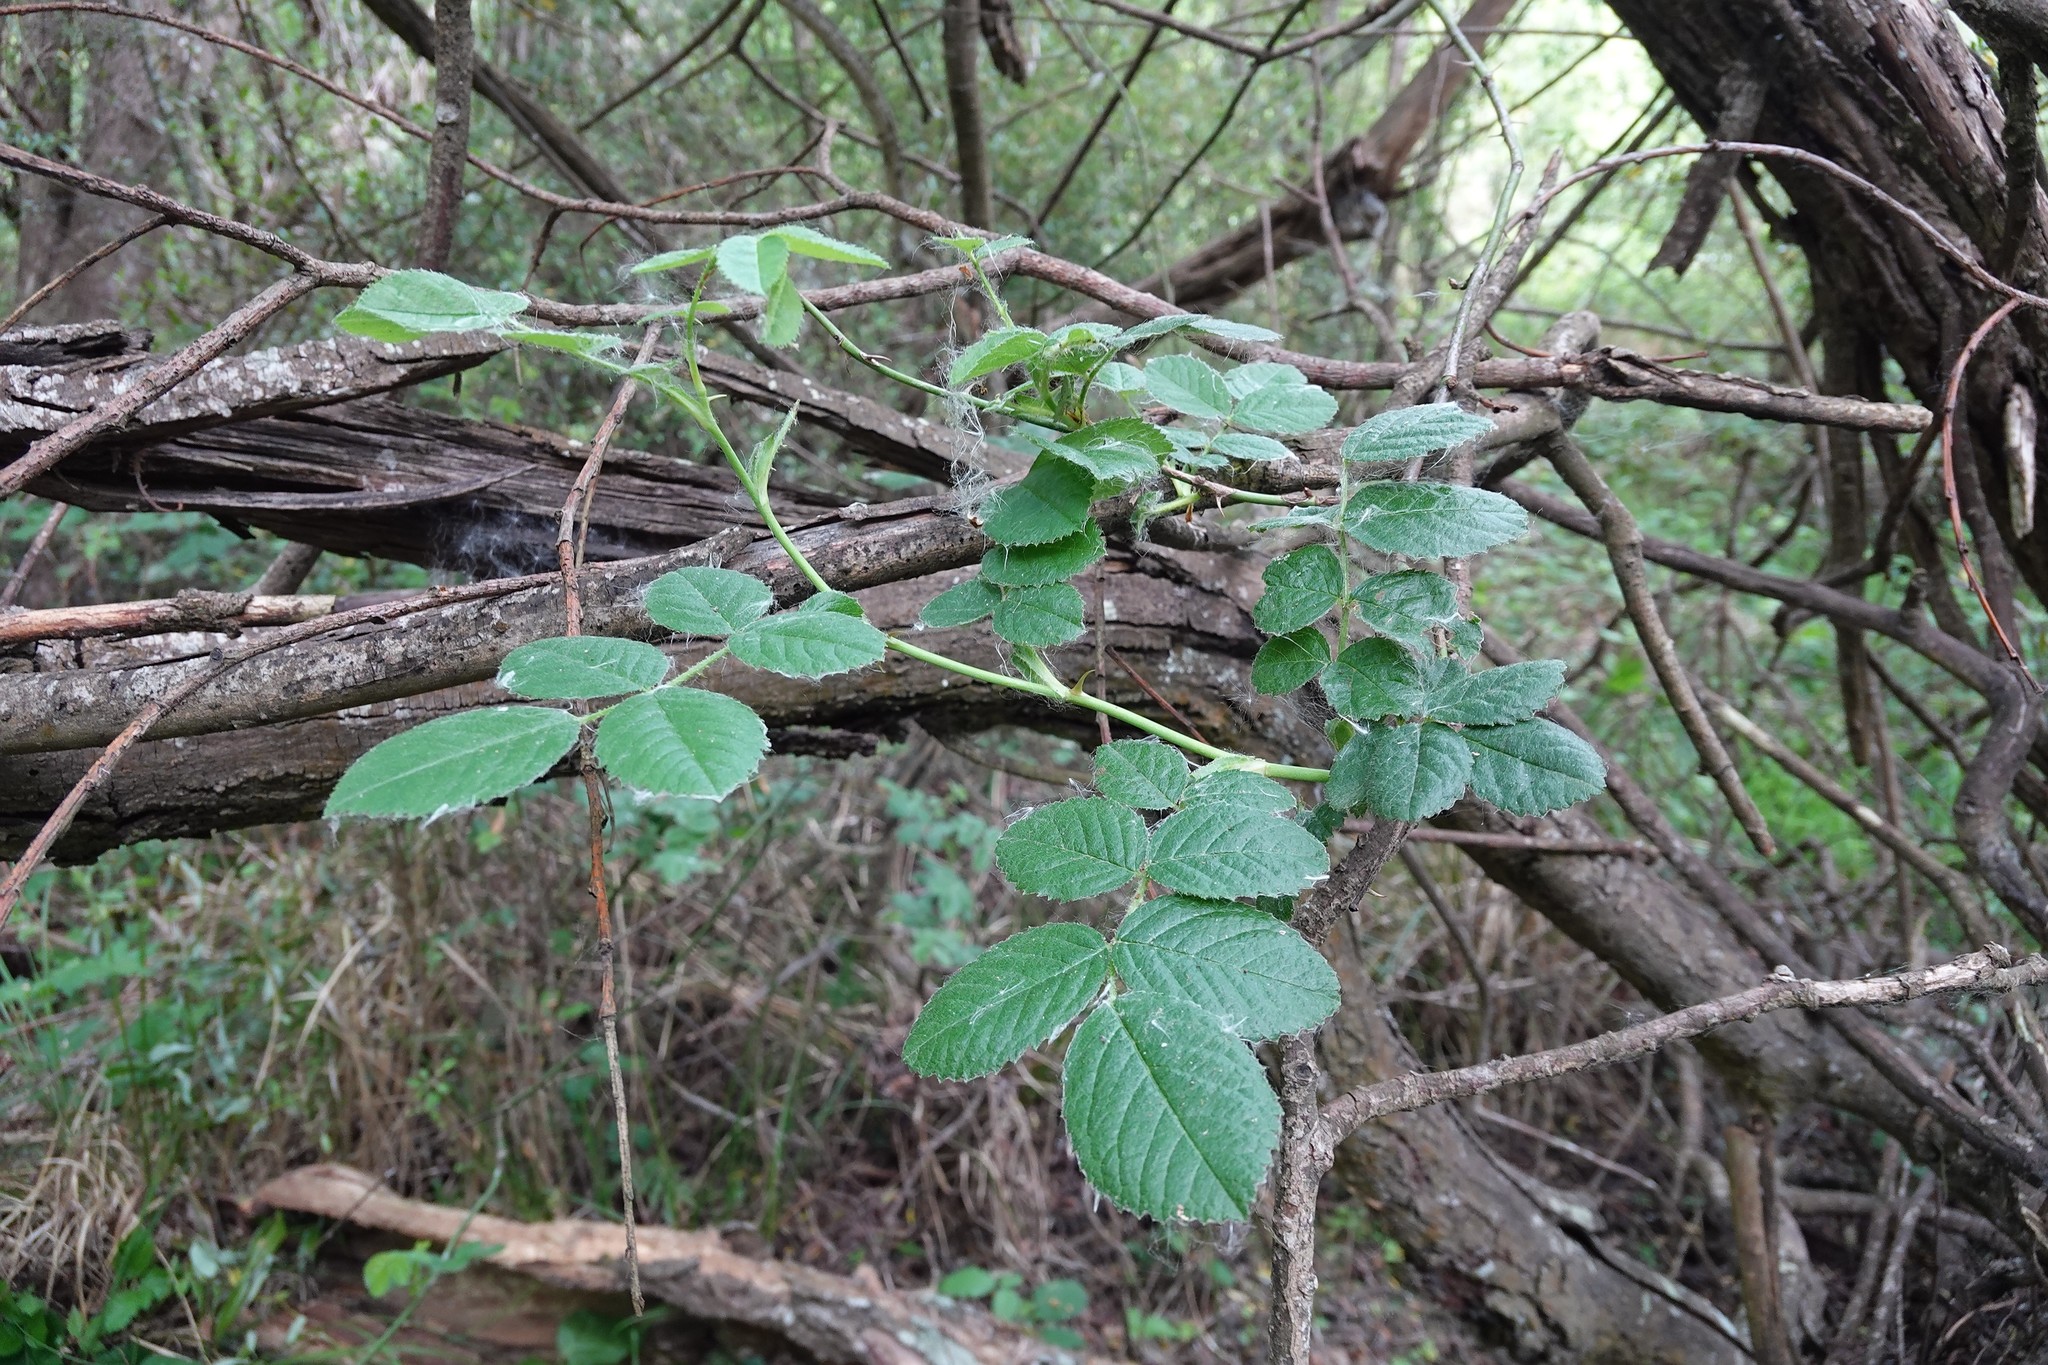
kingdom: Plantae
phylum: Tracheophyta
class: Magnoliopsida
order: Rosales
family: Rosaceae
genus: Rosa
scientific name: Rosa multiflora
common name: Multiflora rose
